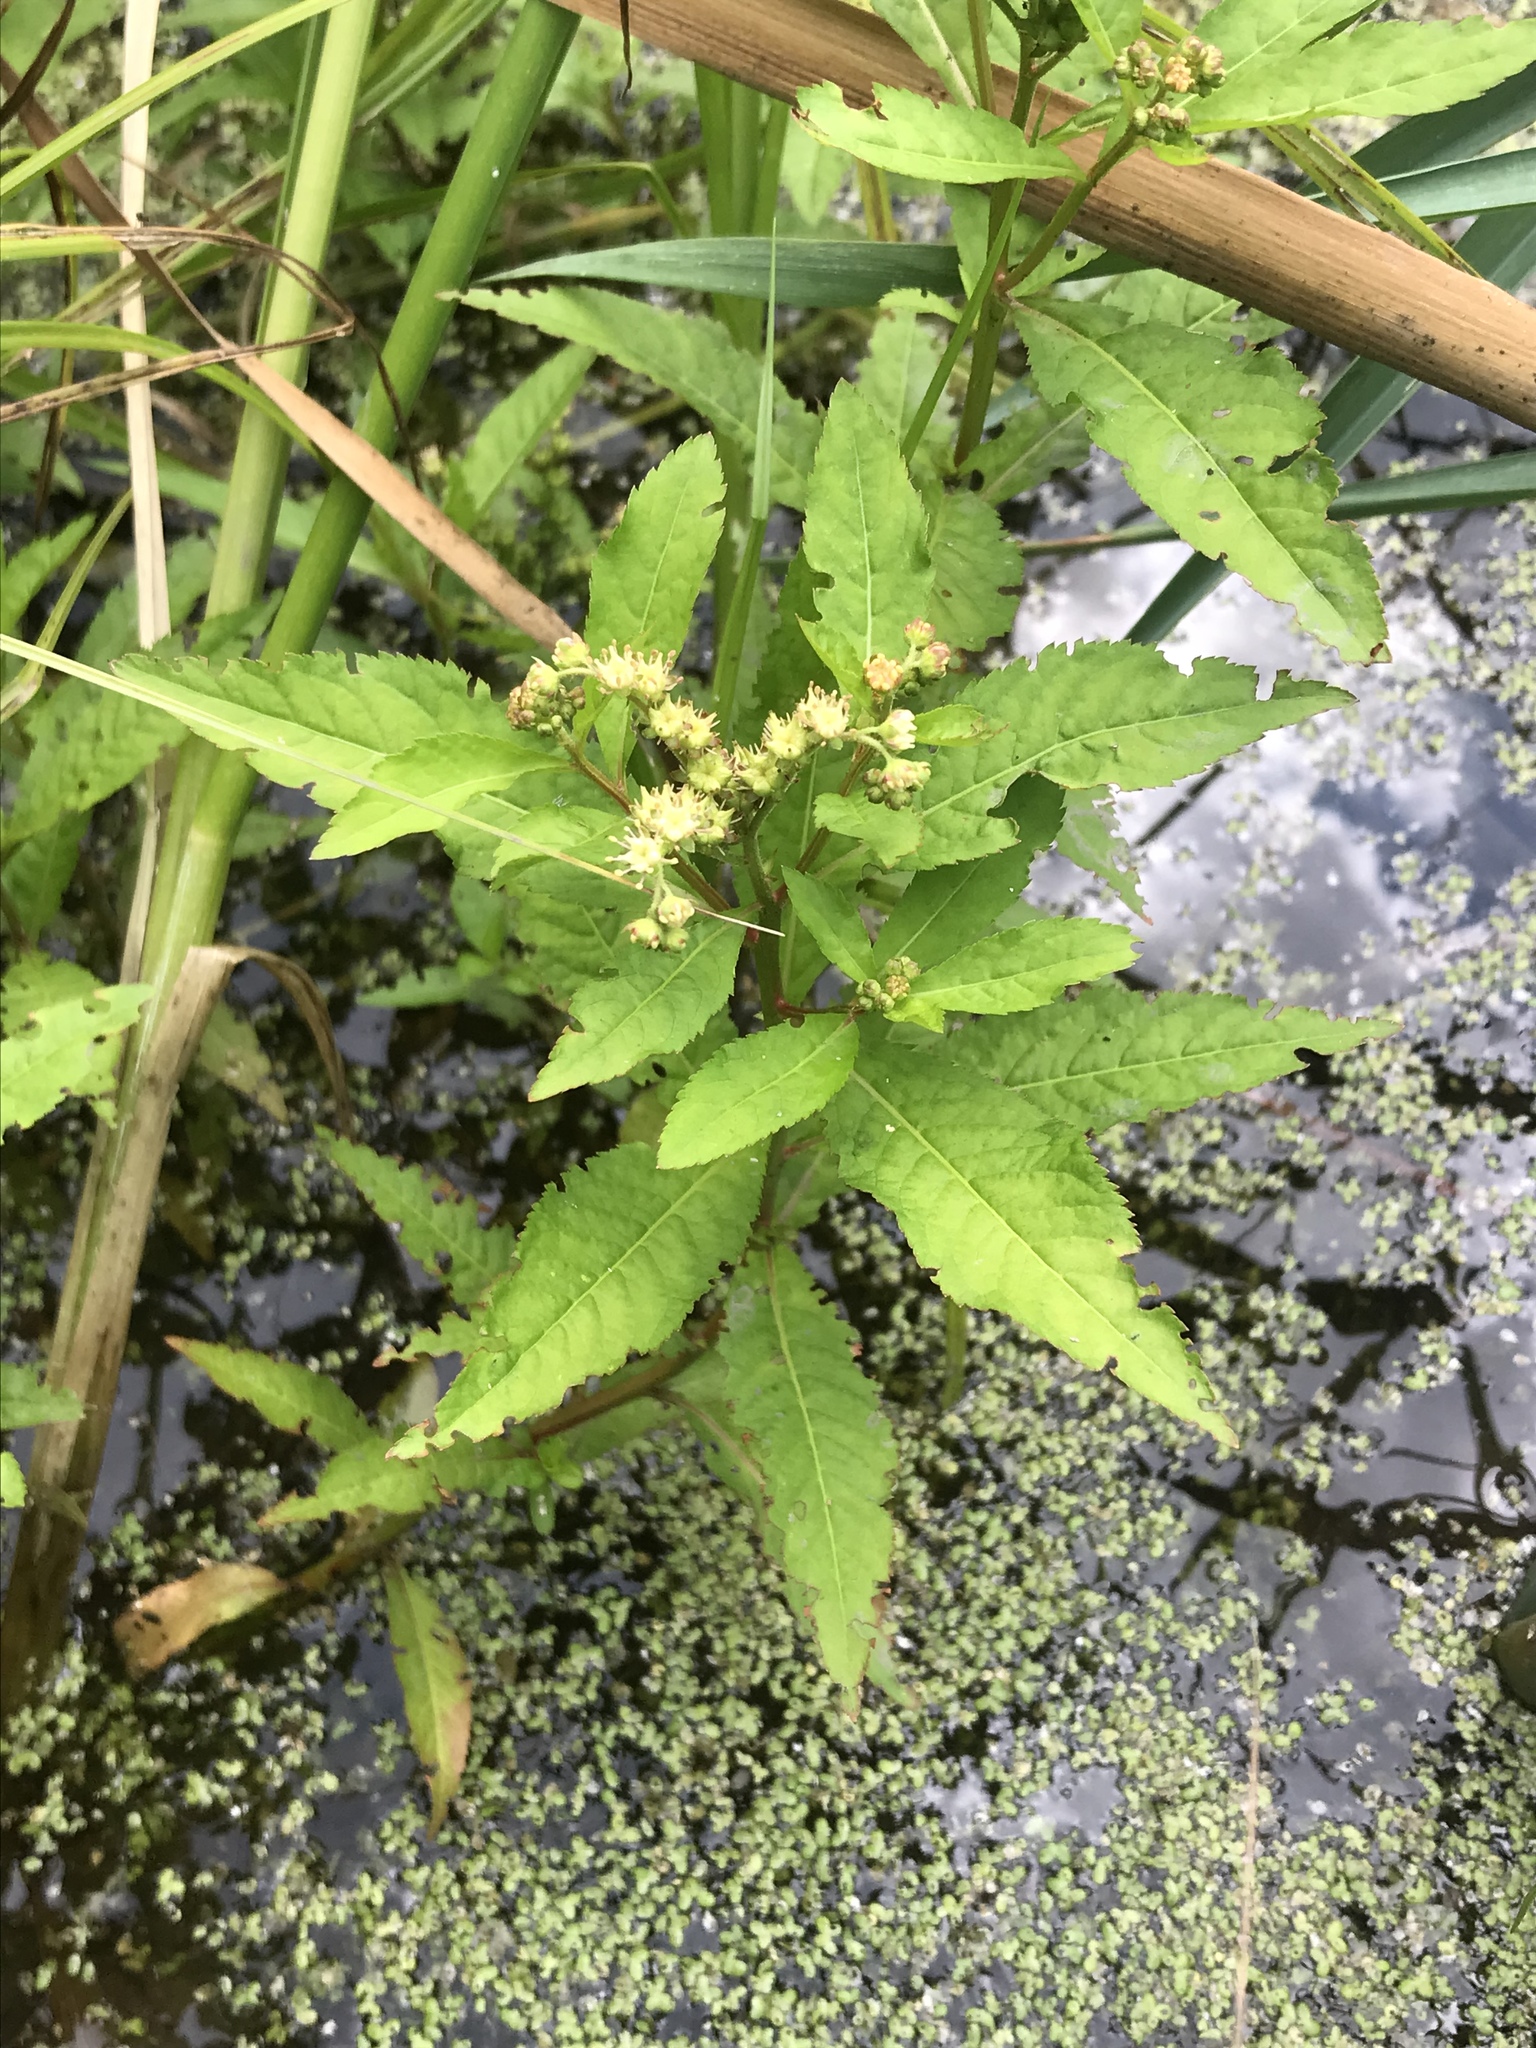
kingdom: Plantae
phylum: Tracheophyta
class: Magnoliopsida
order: Saxifragales
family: Penthoraceae
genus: Penthorum
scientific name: Penthorum sedoides
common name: Ditch stonecrop
